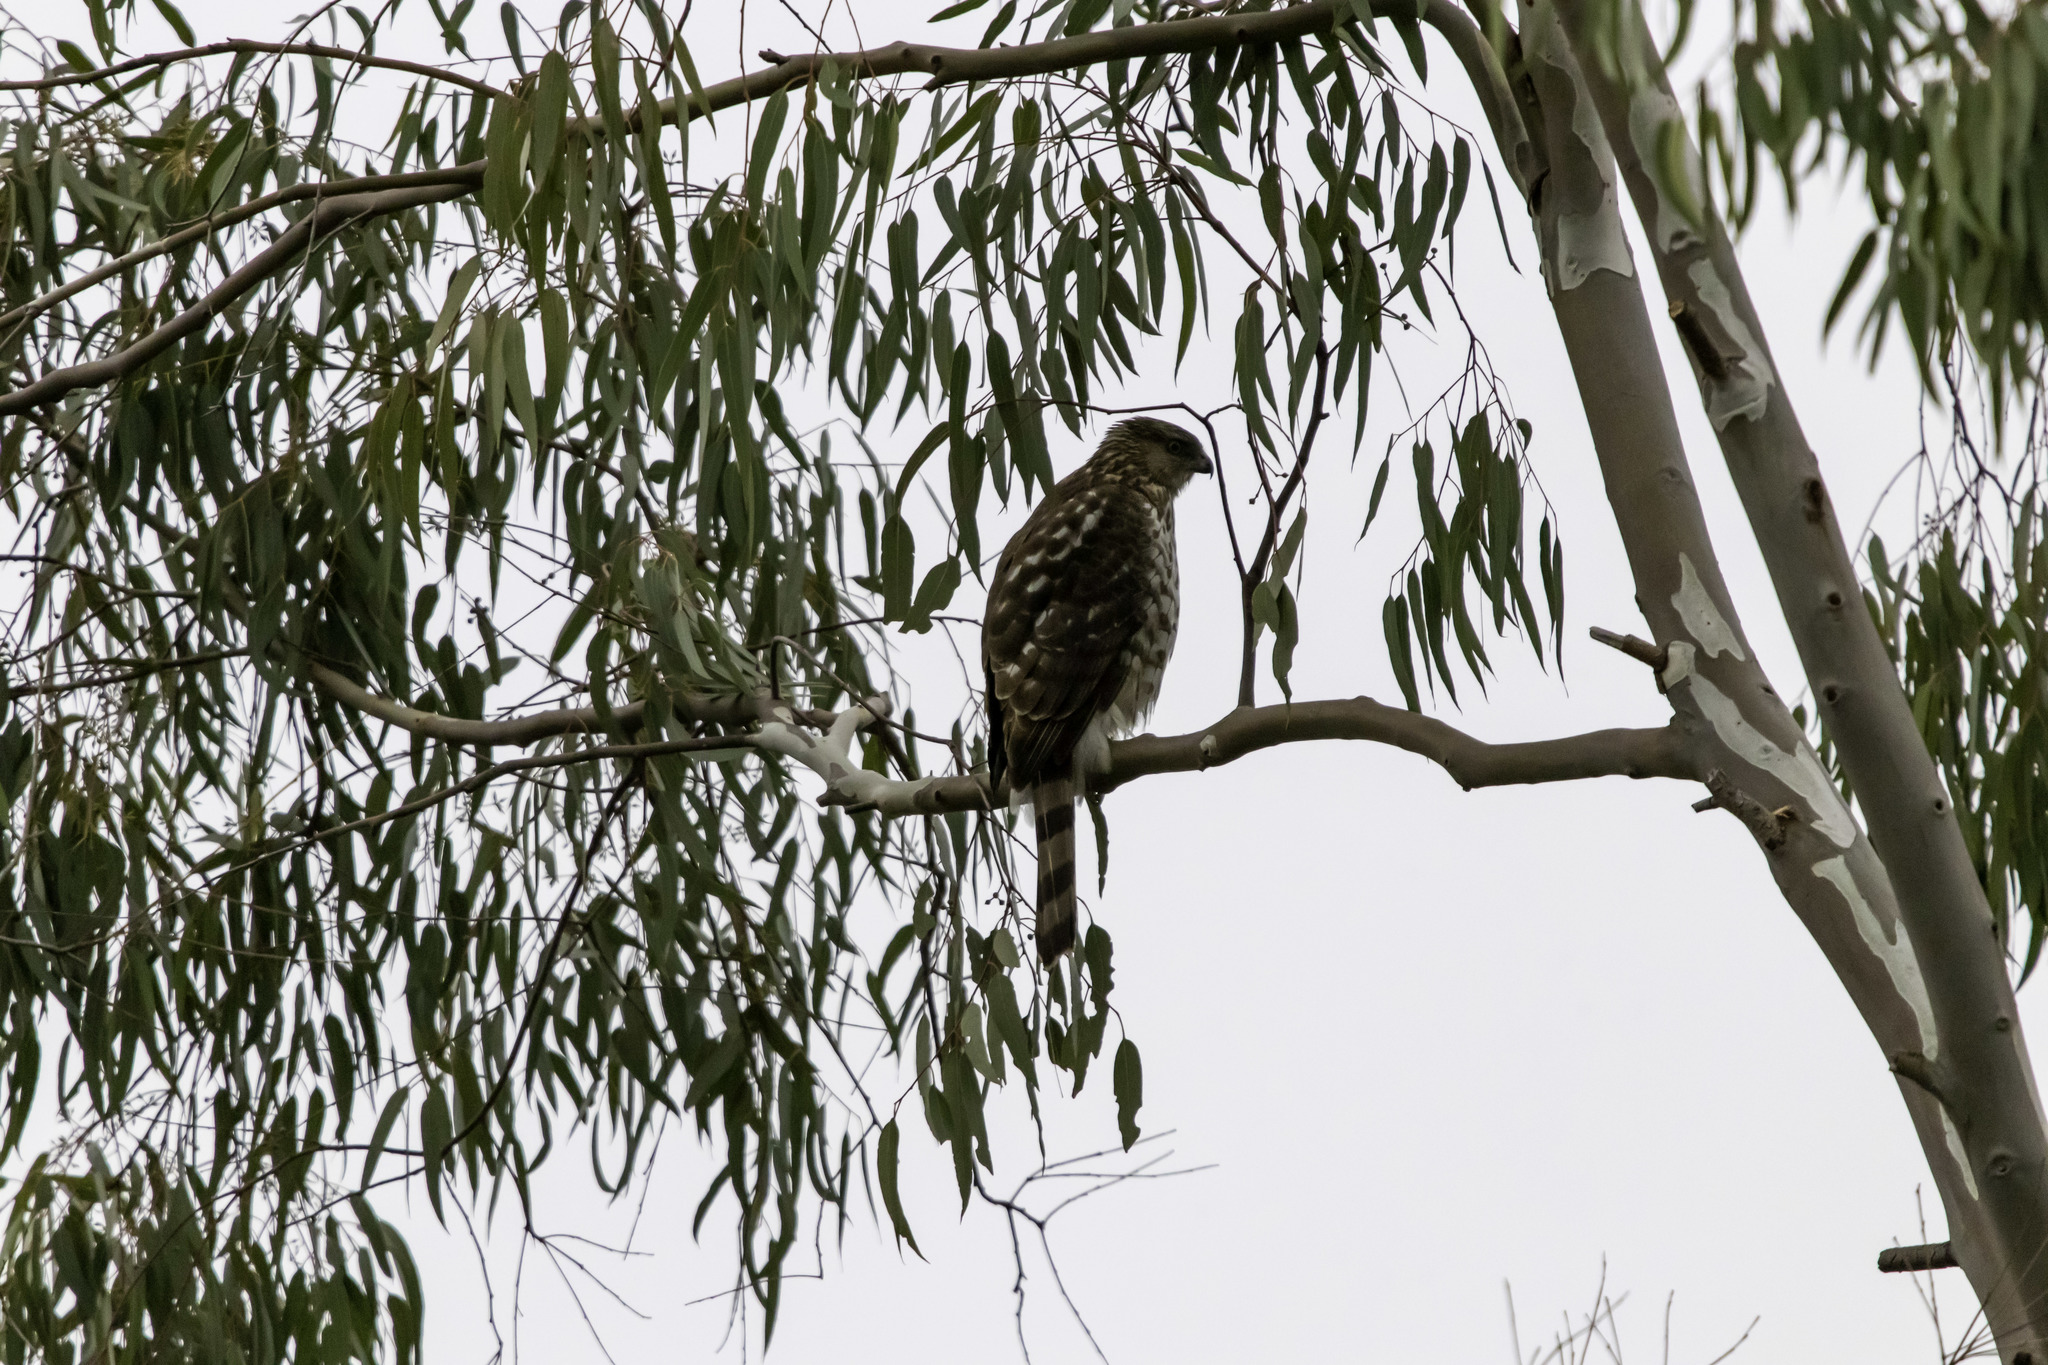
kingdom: Animalia
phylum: Chordata
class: Aves
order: Accipitriformes
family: Accipitridae
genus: Accipiter
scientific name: Accipiter cooperii
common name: Cooper's hawk
